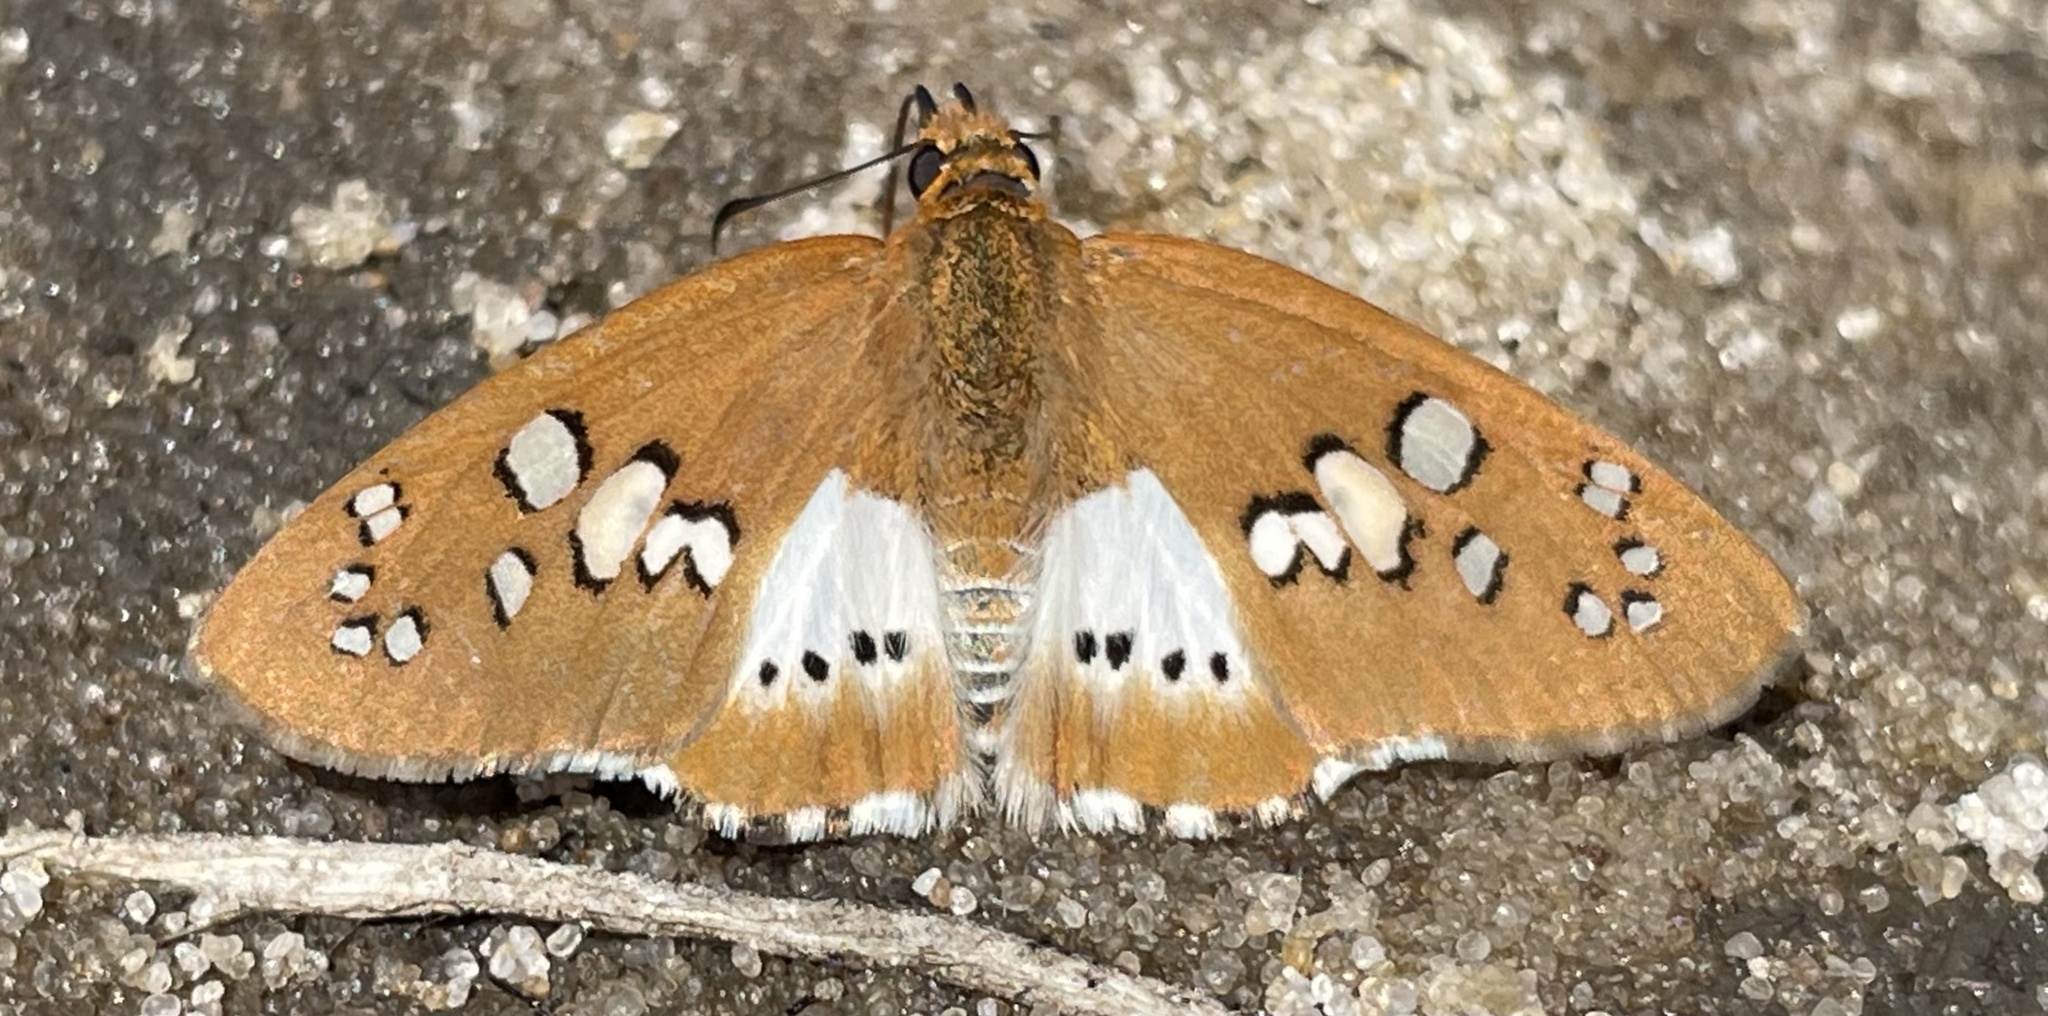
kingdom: Animalia
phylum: Arthropoda
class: Insecta
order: Lepidoptera
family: Hesperiidae
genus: Calleagris
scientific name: Calleagris jamesoni
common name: Jameson’s flat
